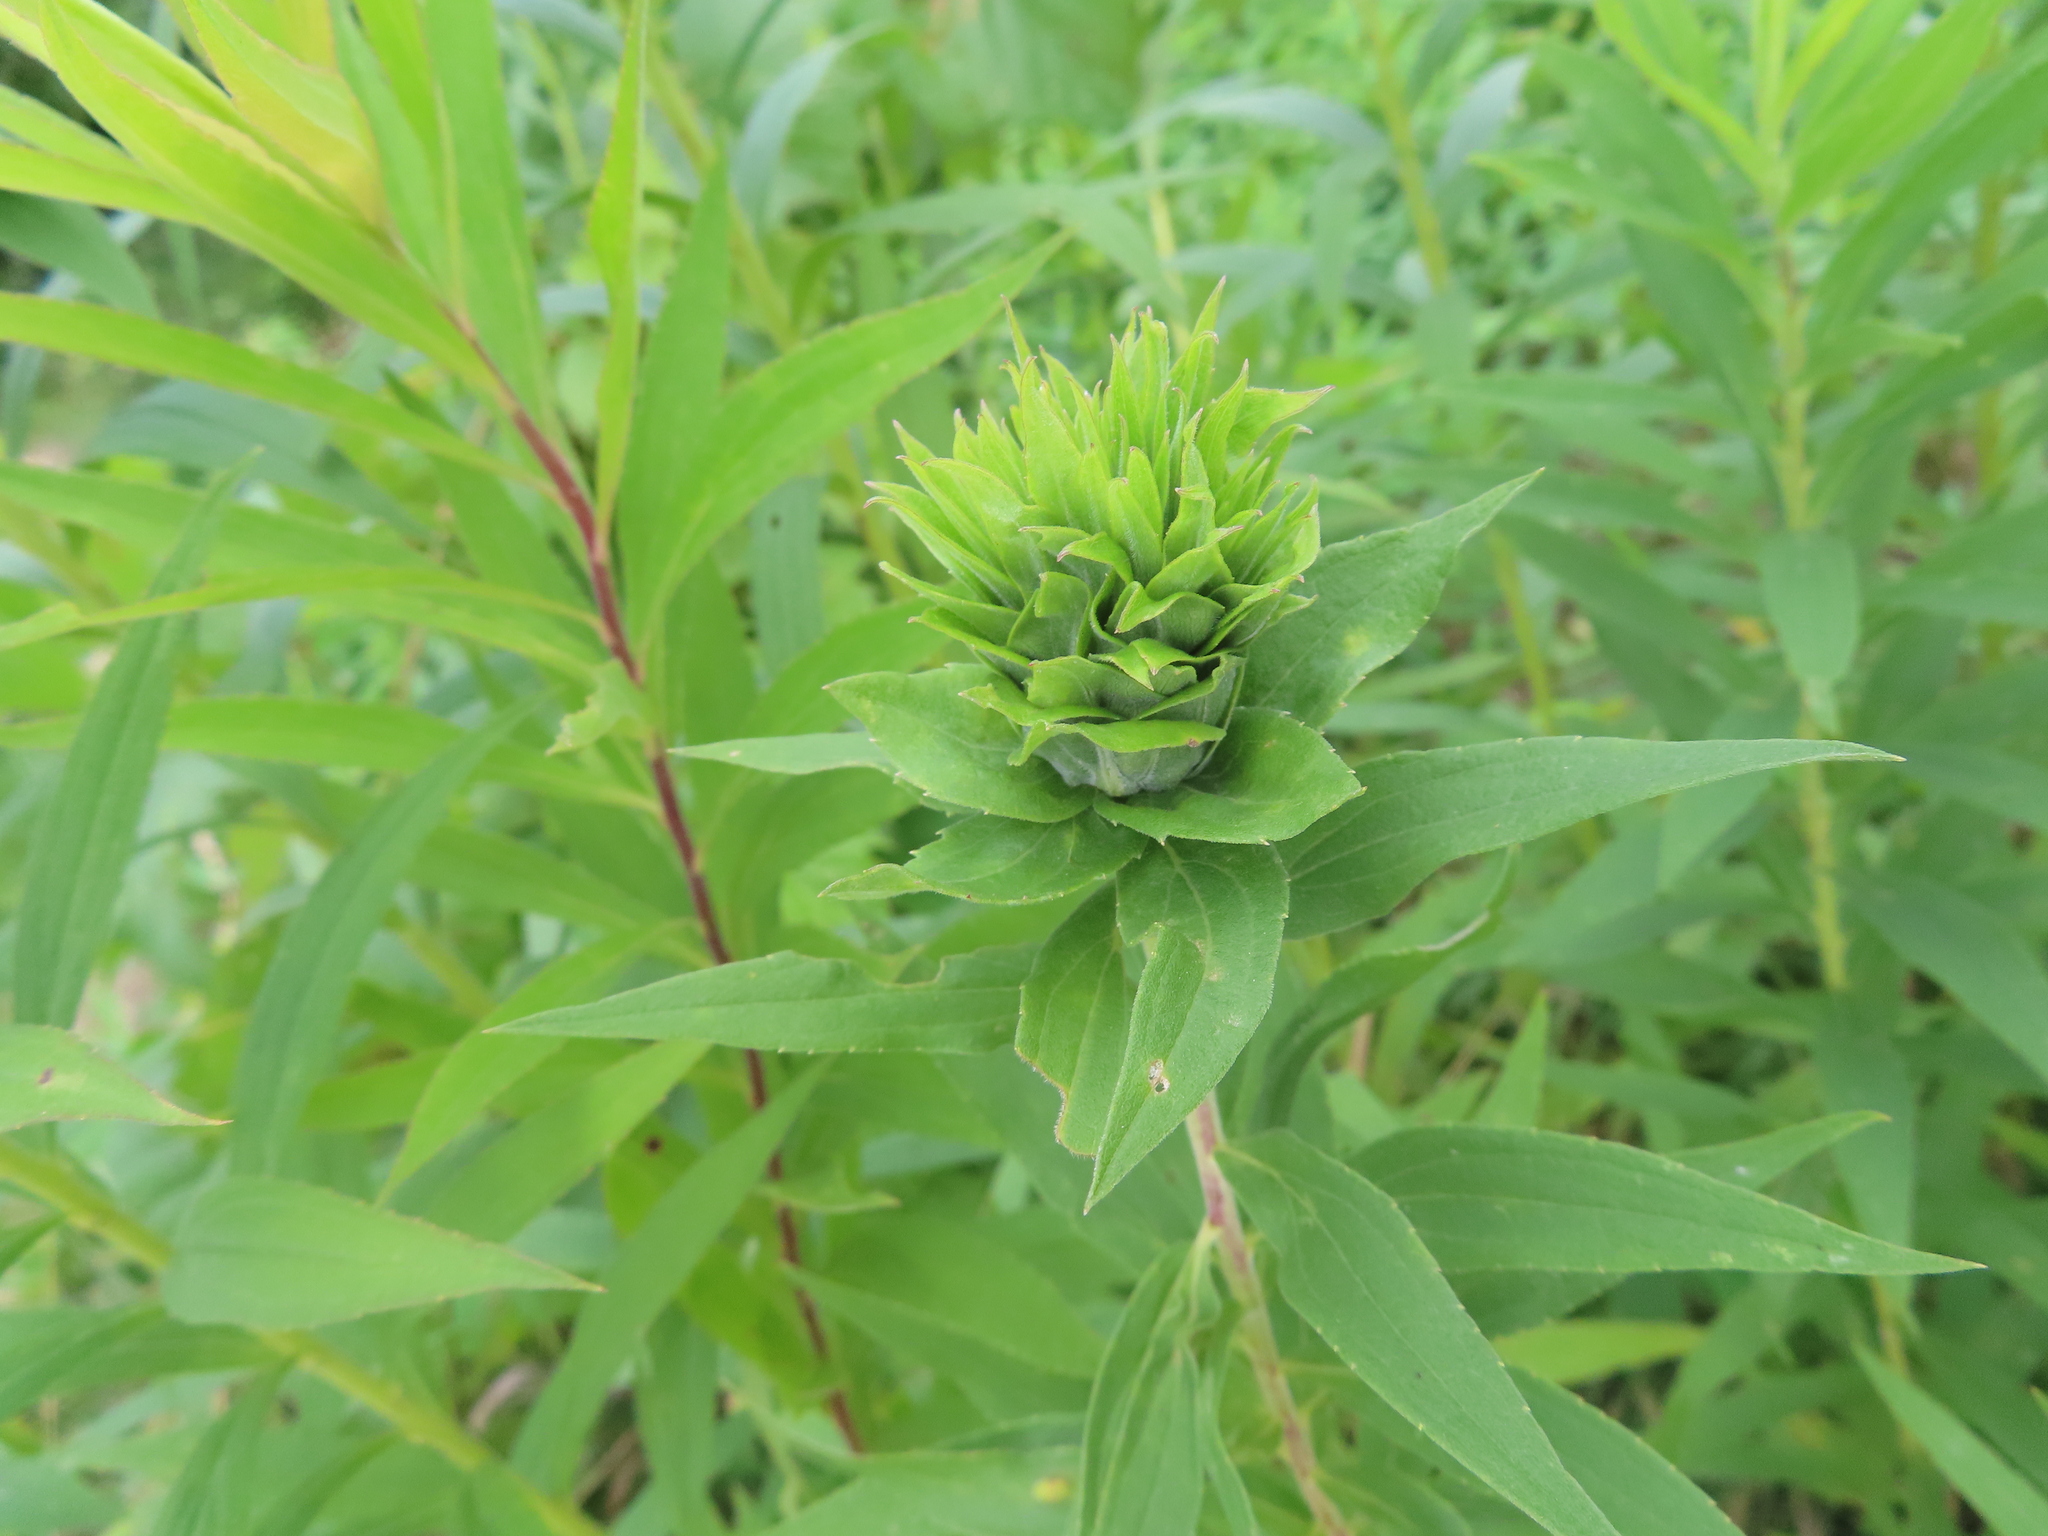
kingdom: Animalia
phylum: Arthropoda
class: Insecta
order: Diptera
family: Cecidomyiidae
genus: Rhopalomyia
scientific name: Rhopalomyia solidaginis
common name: Goldenrod bunch gall midge
